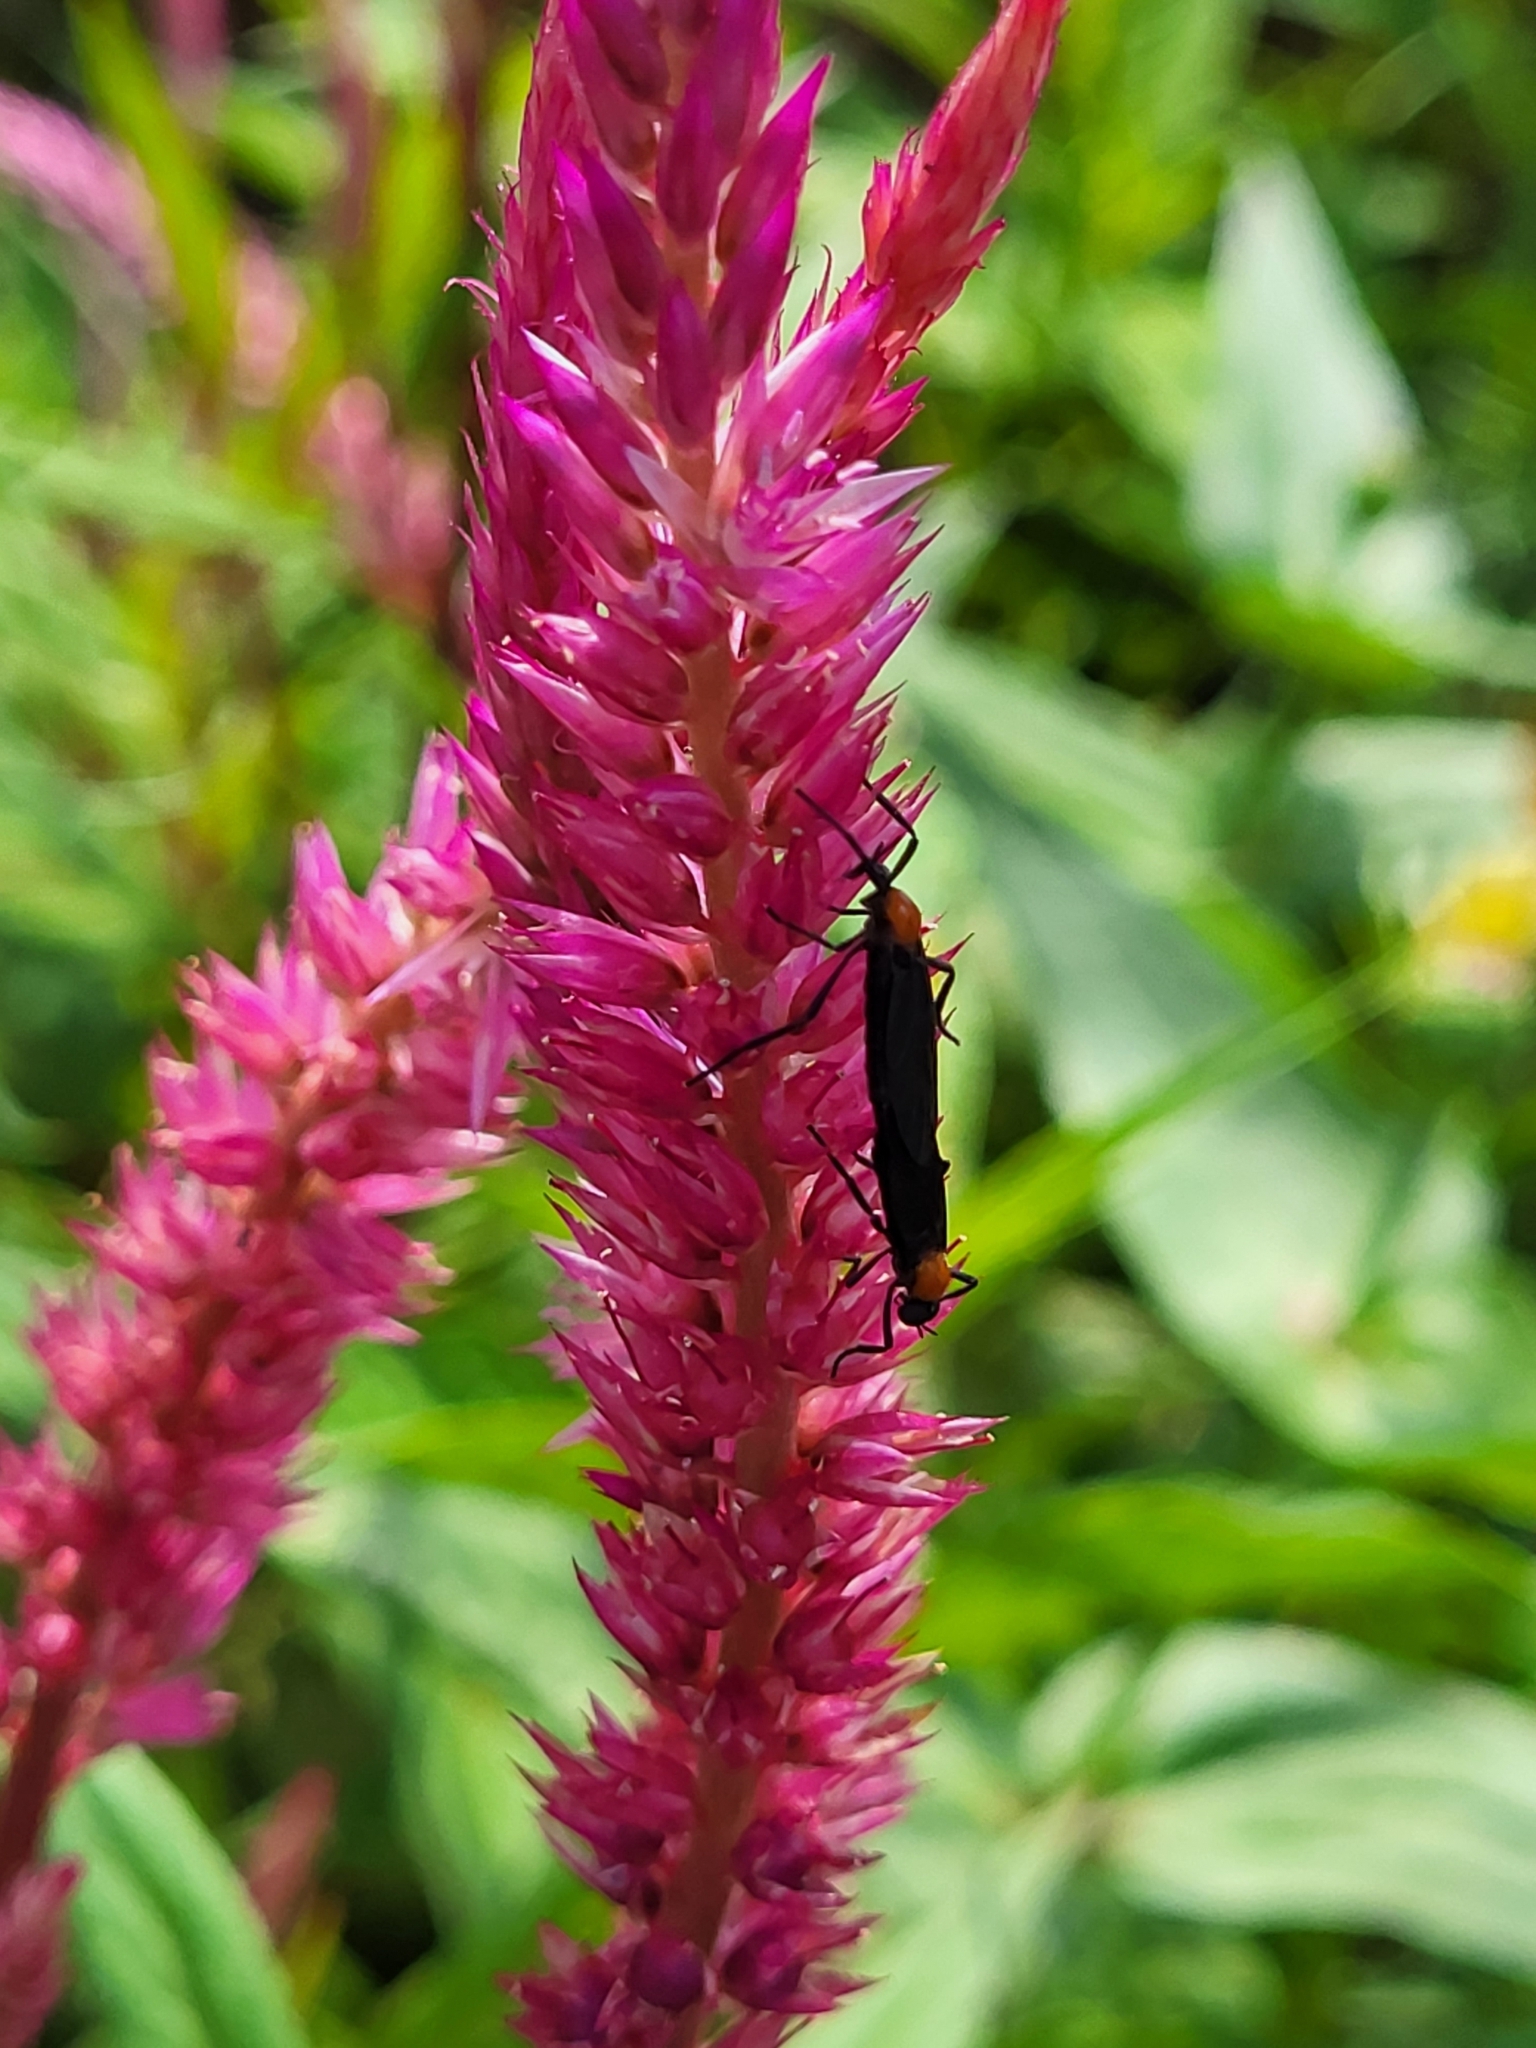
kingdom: Animalia
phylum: Arthropoda
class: Insecta
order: Diptera
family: Bibionidae
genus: Plecia
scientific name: Plecia nearctica
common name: March fly
